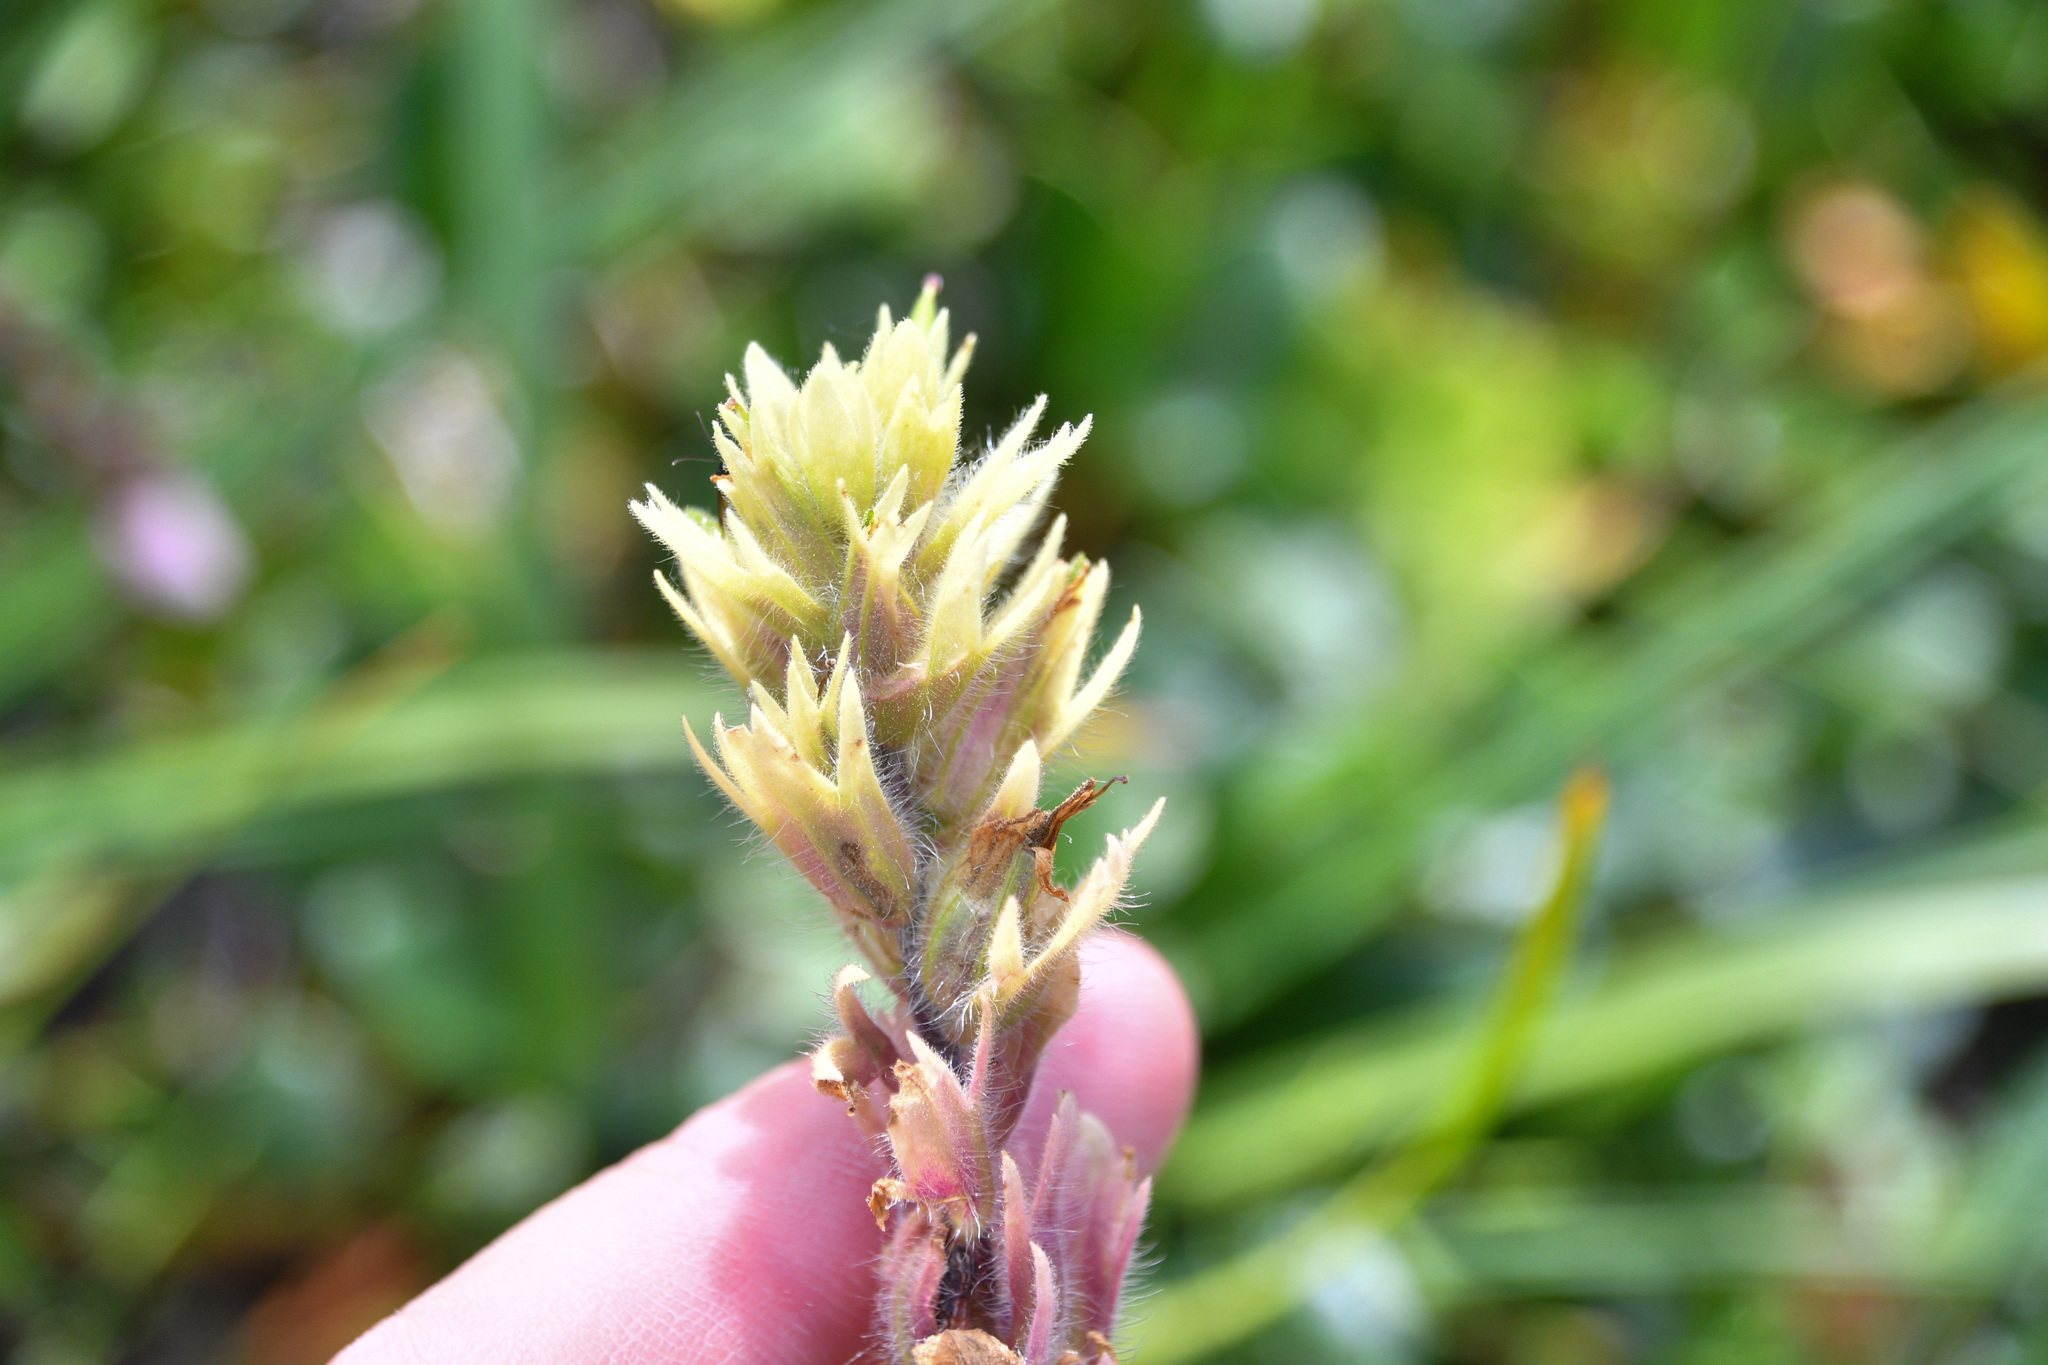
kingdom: Plantae
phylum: Tracheophyta
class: Magnoliopsida
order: Lamiales
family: Orobanchaceae
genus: Castilleja
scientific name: Castilleja parviflora
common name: Mountain paintbrush
